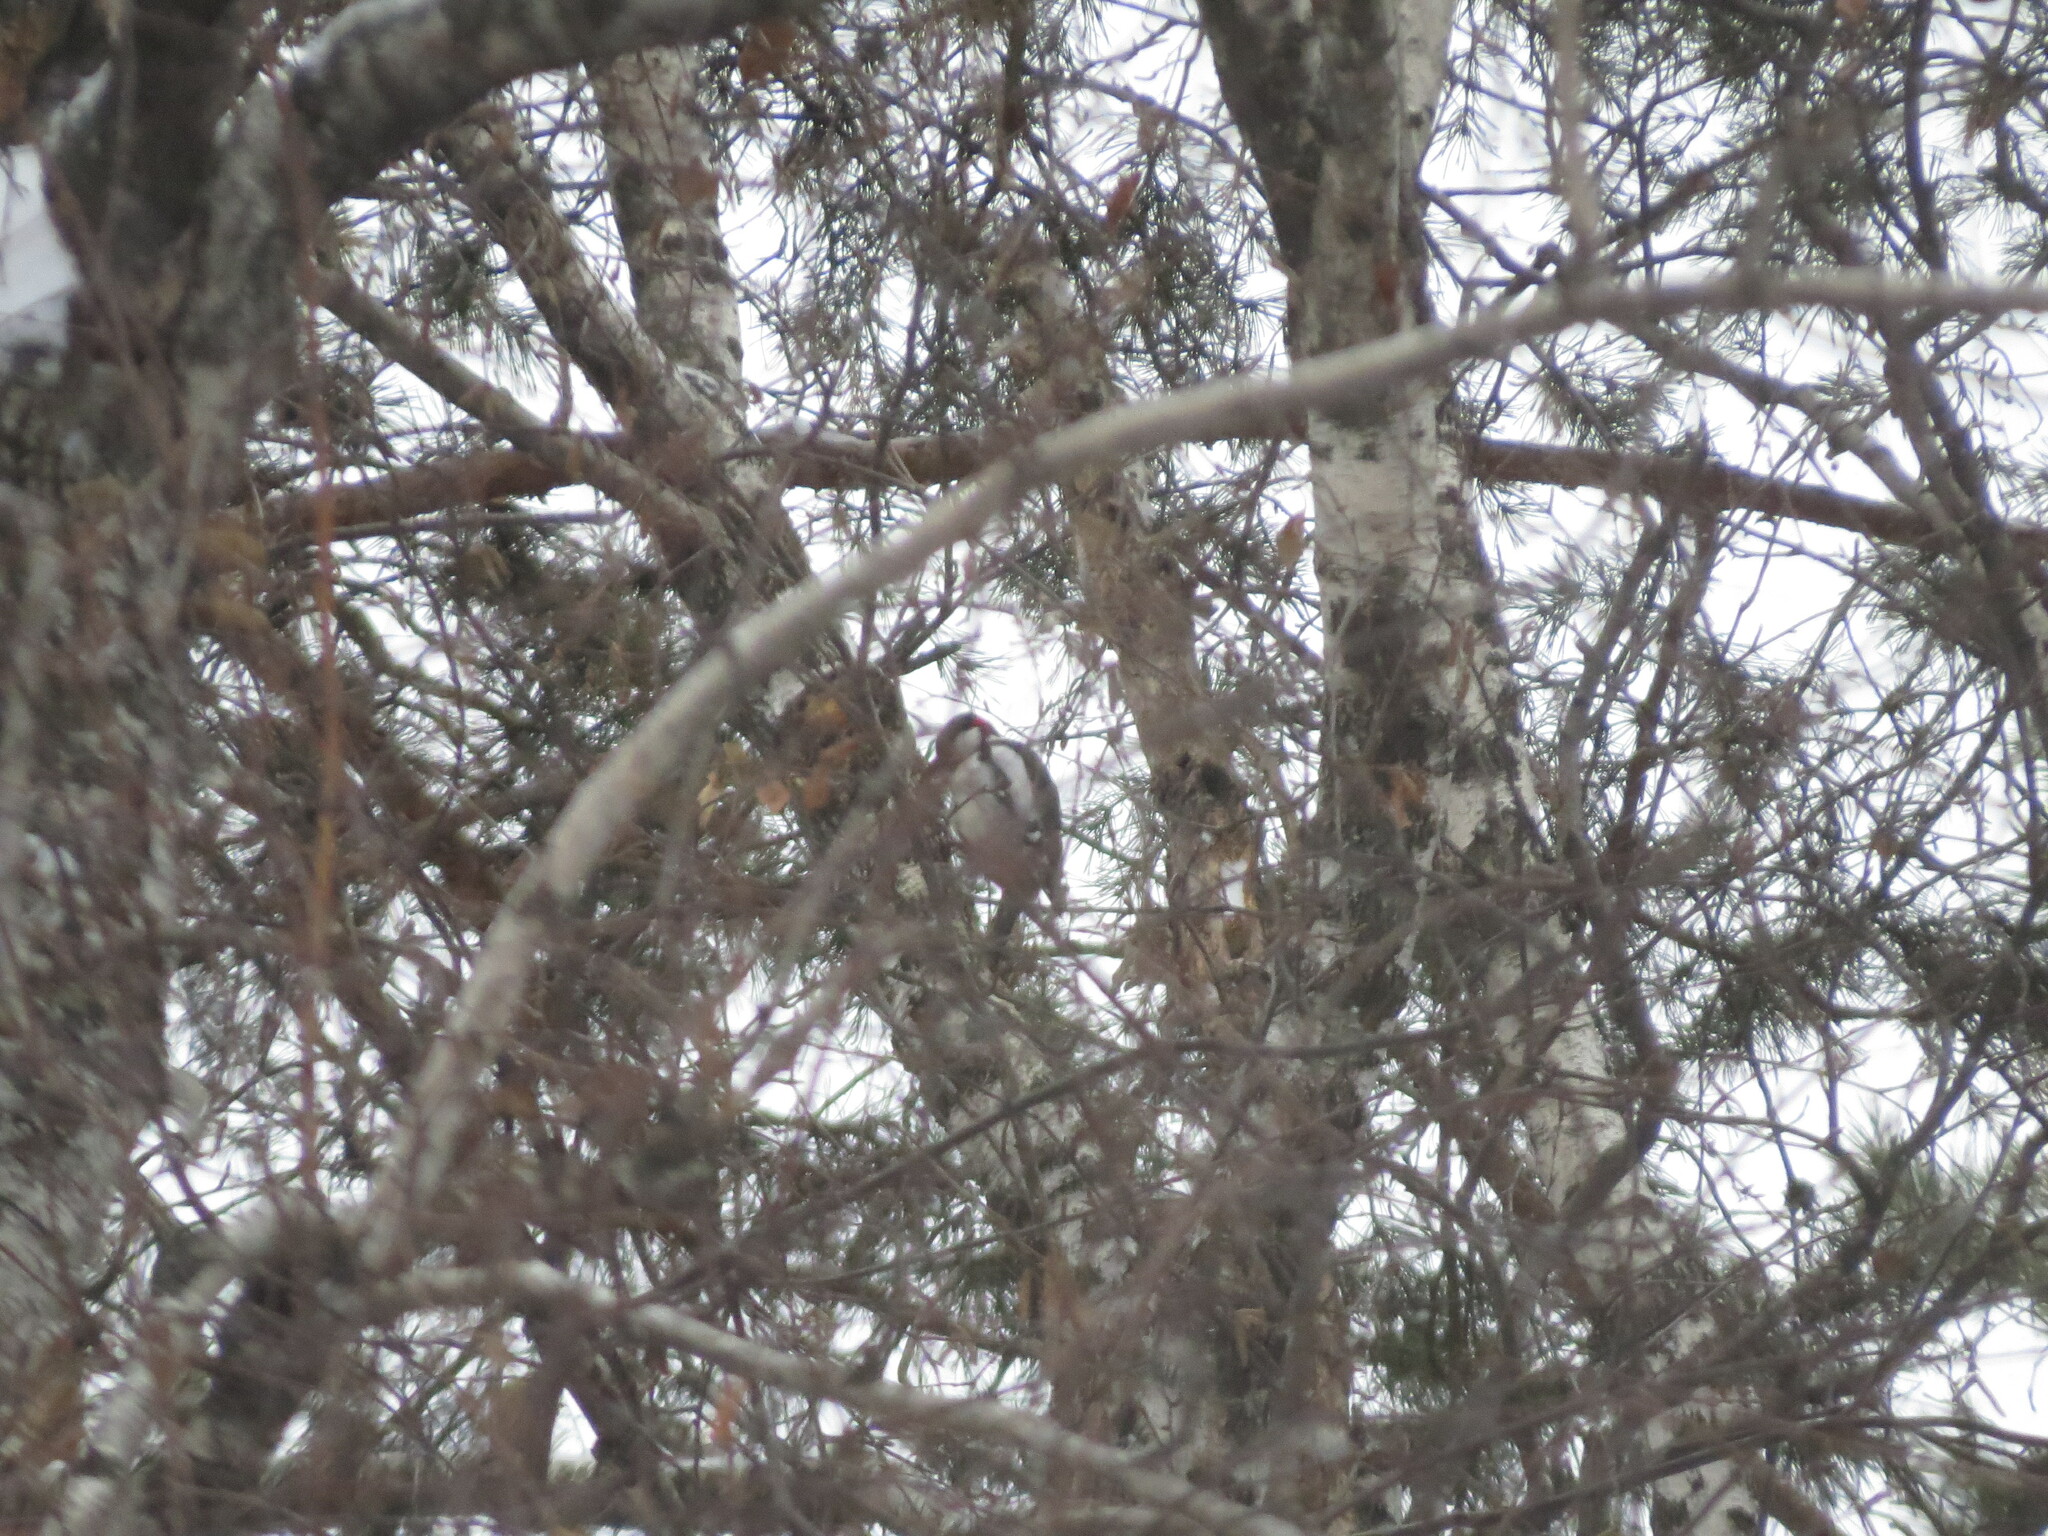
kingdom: Animalia
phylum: Chordata
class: Aves
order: Piciformes
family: Picidae
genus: Dendrocopos
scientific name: Dendrocopos major
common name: Great spotted woodpecker
